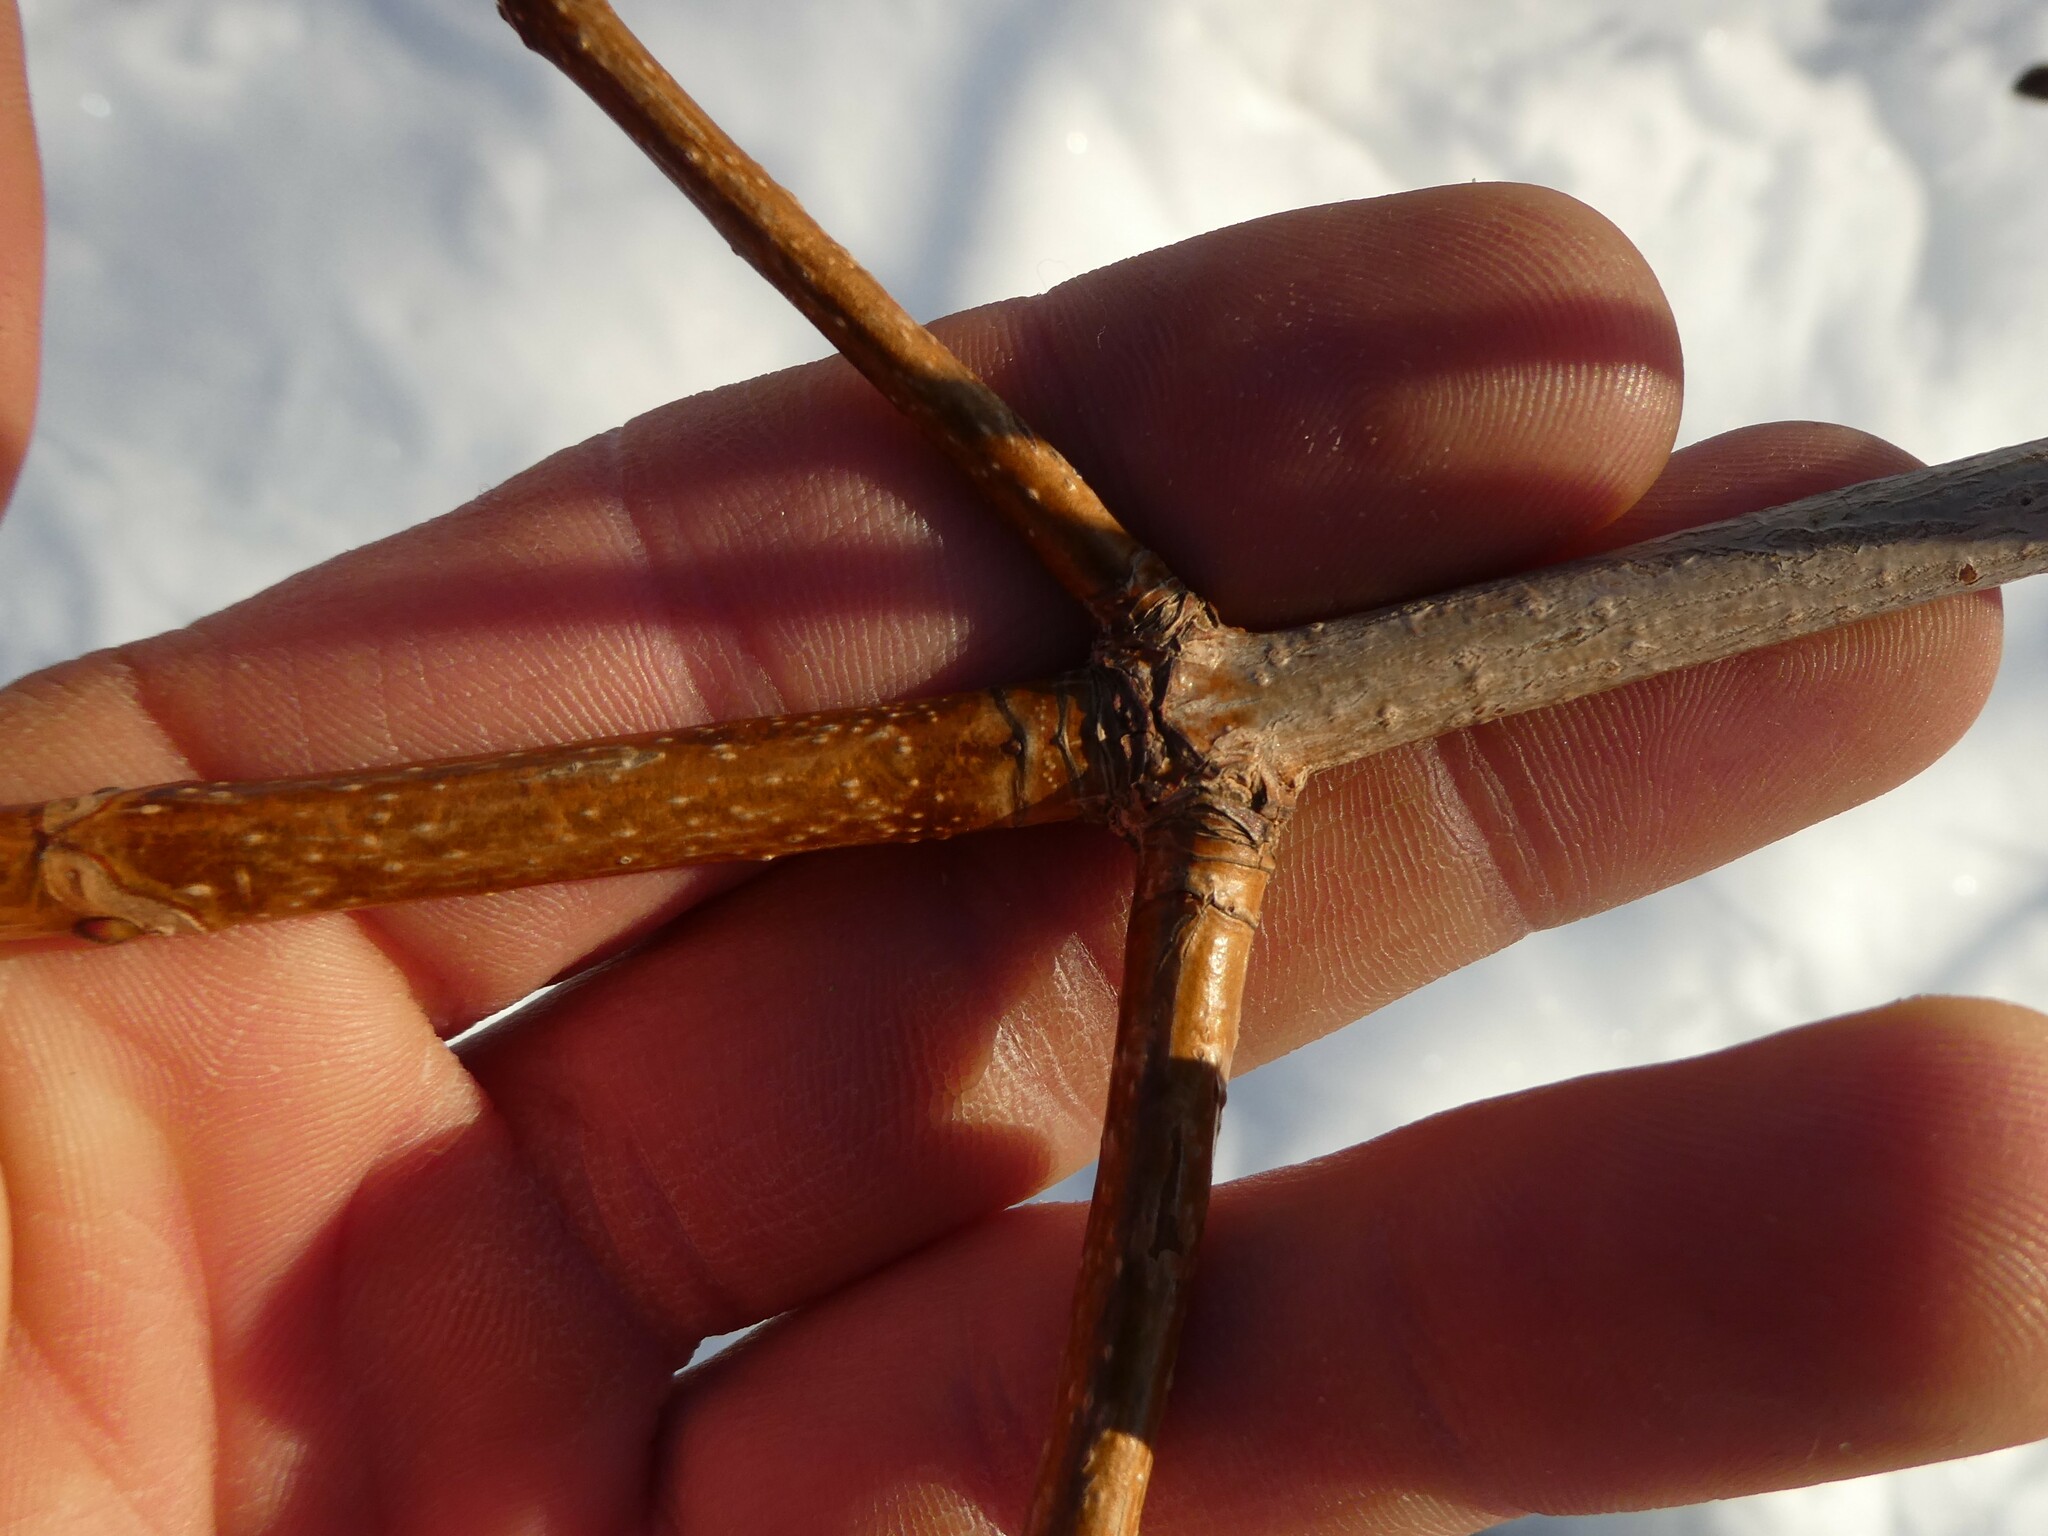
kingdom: Plantae
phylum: Tracheophyta
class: Magnoliopsida
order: Sapindales
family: Sapindaceae
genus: Acer
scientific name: Acer platanoides
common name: Norway maple
